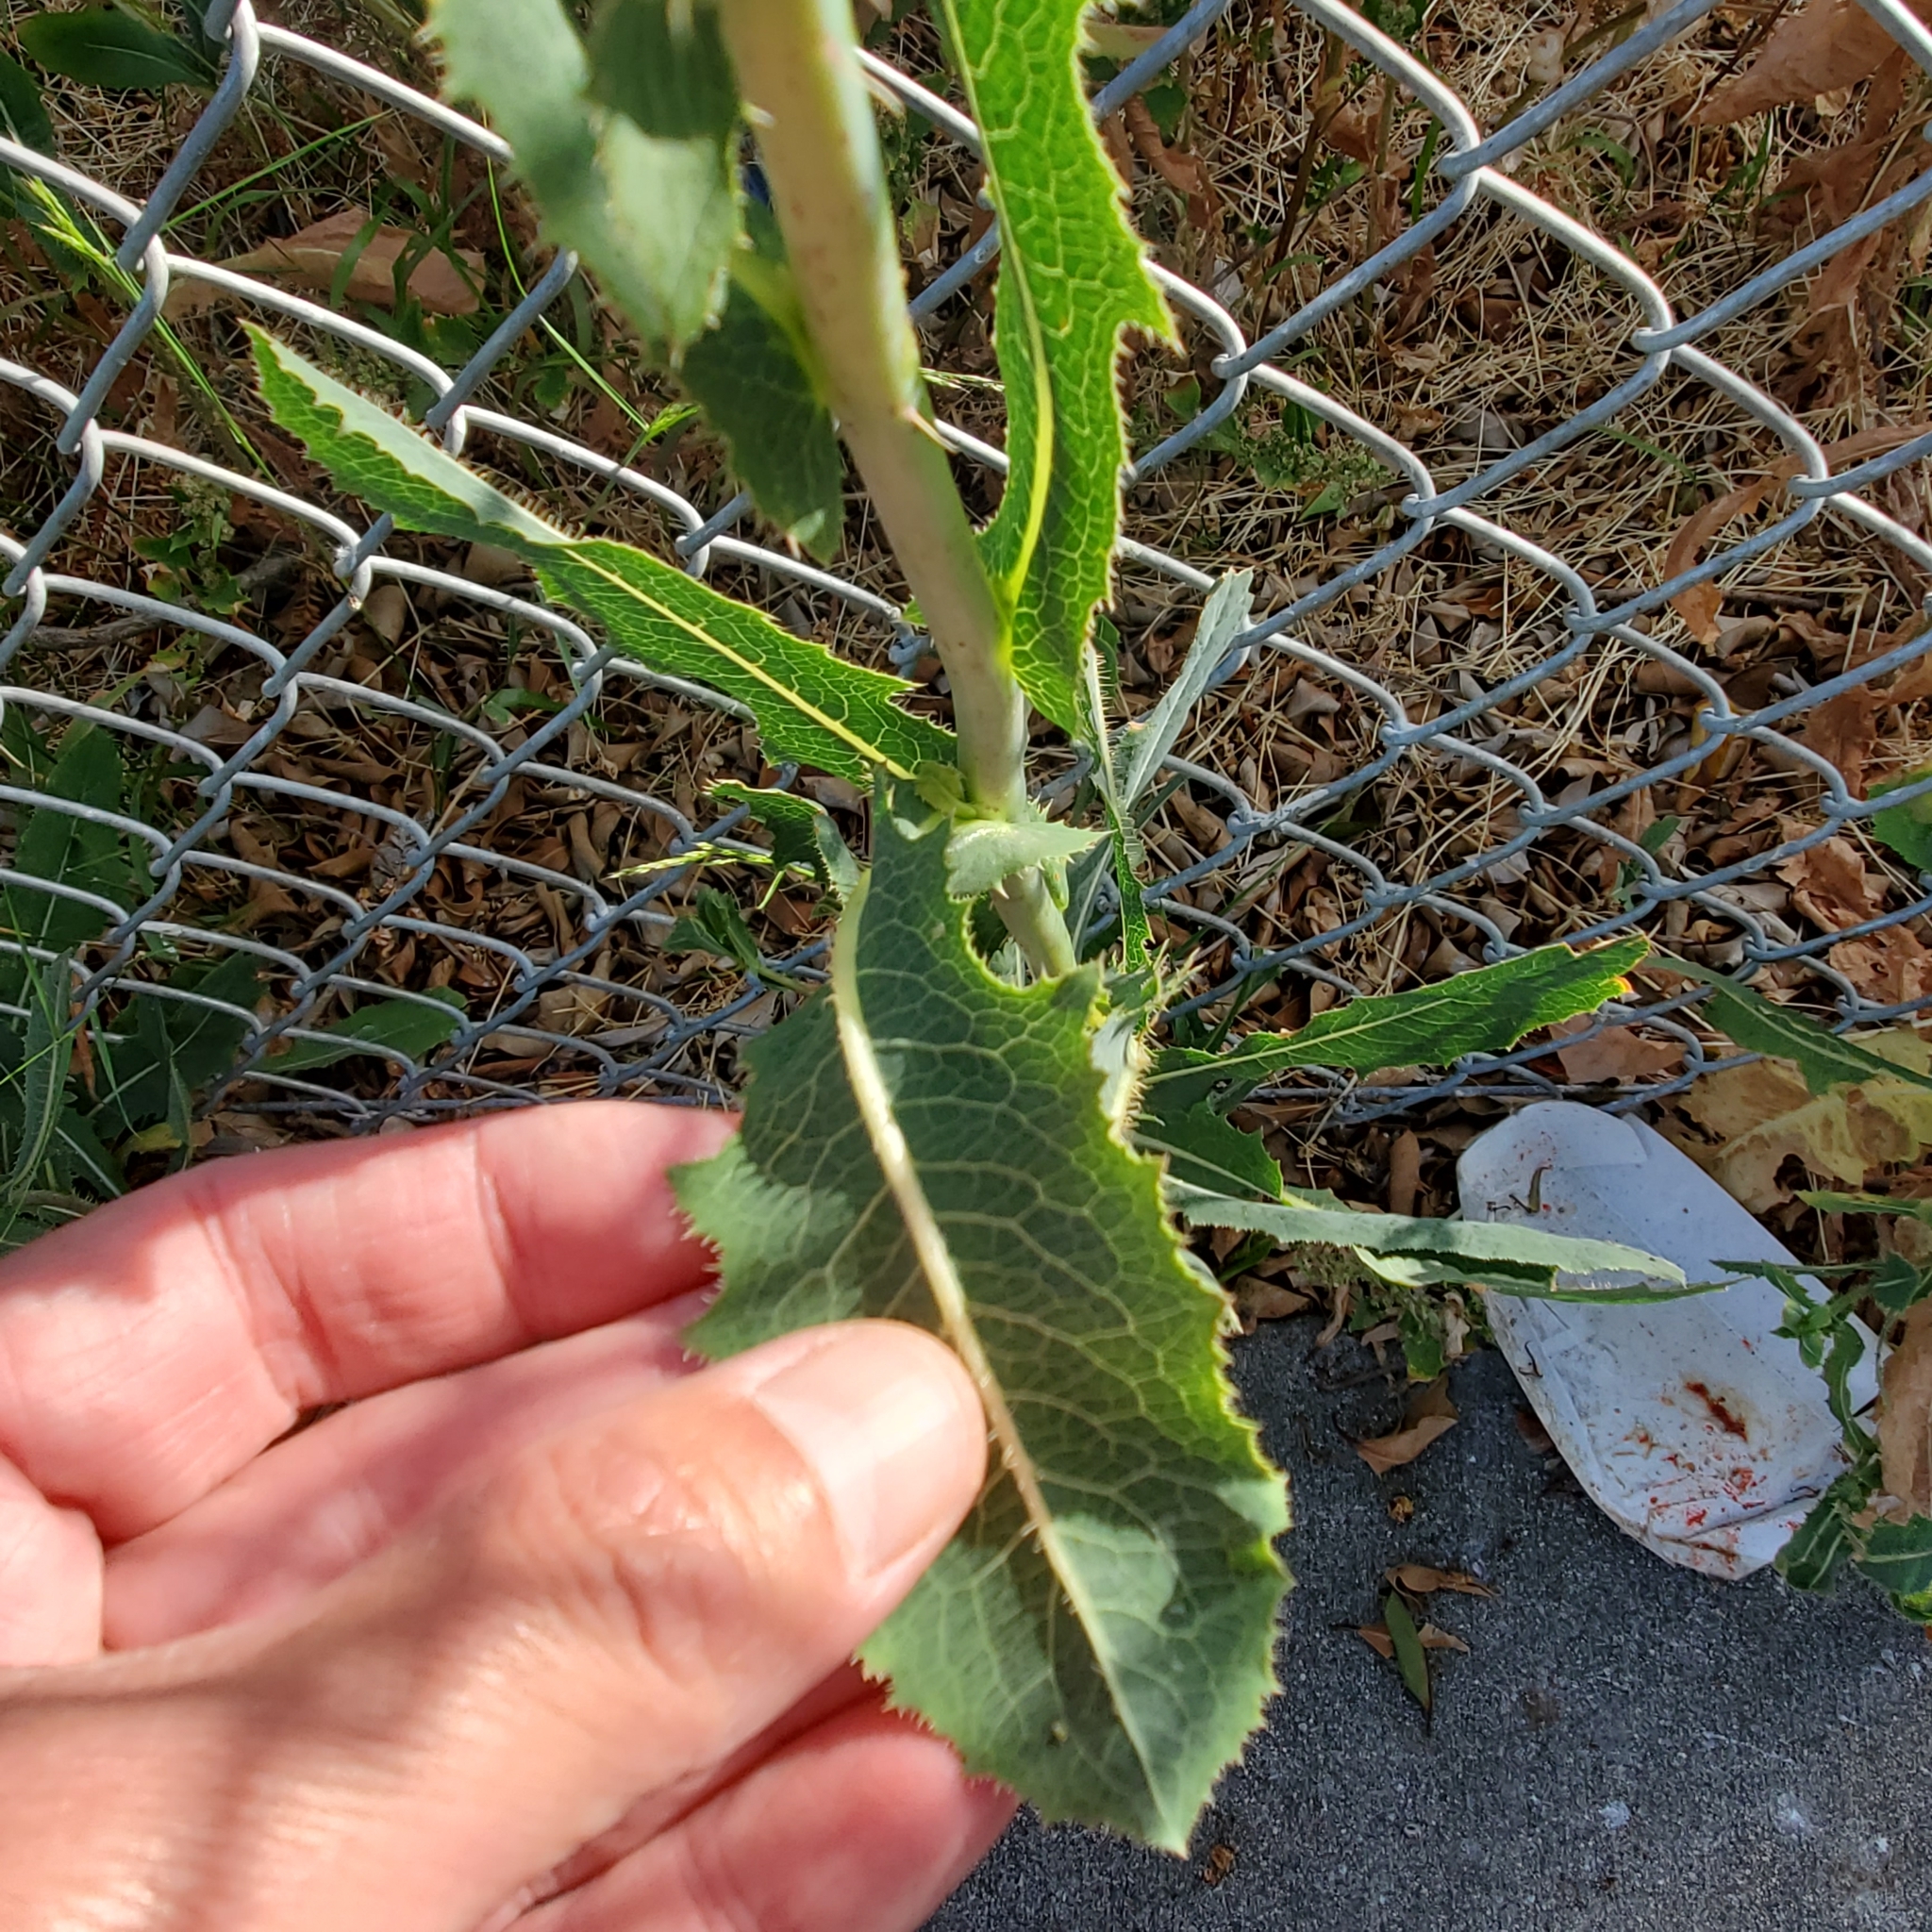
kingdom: Plantae
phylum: Tracheophyta
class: Magnoliopsida
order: Asterales
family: Asteraceae
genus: Lactuca
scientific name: Lactuca serriola
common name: Prickly lettuce
